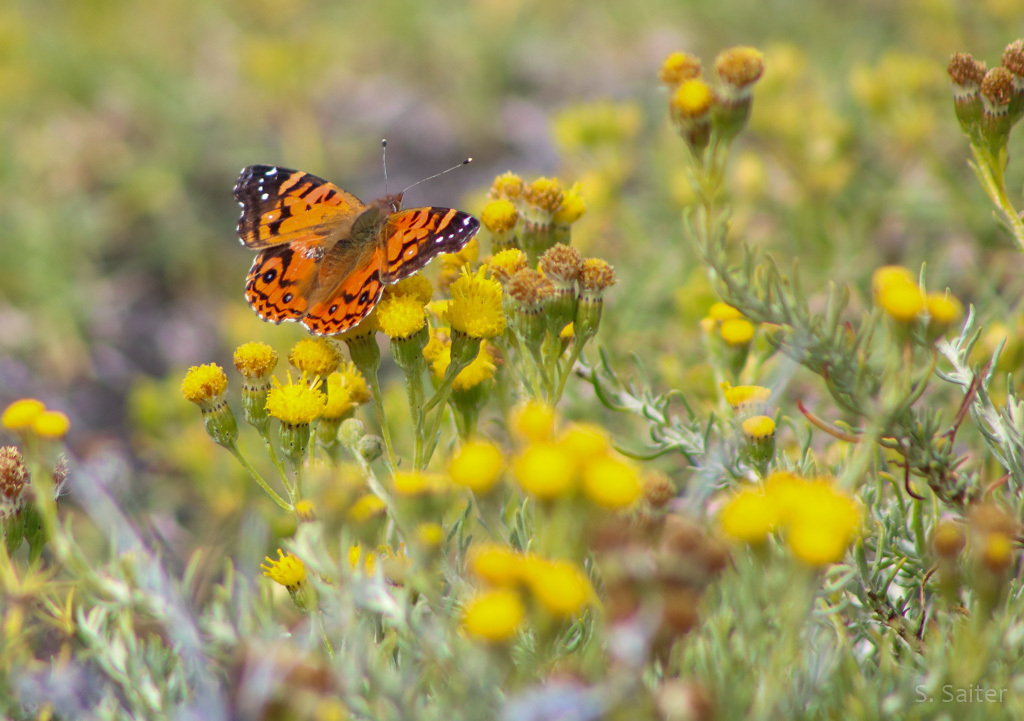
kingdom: Animalia
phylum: Arthropoda
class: Insecta
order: Lepidoptera
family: Nymphalidae
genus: Vanessa
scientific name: Vanessa terpsichore
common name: Chilean lady
